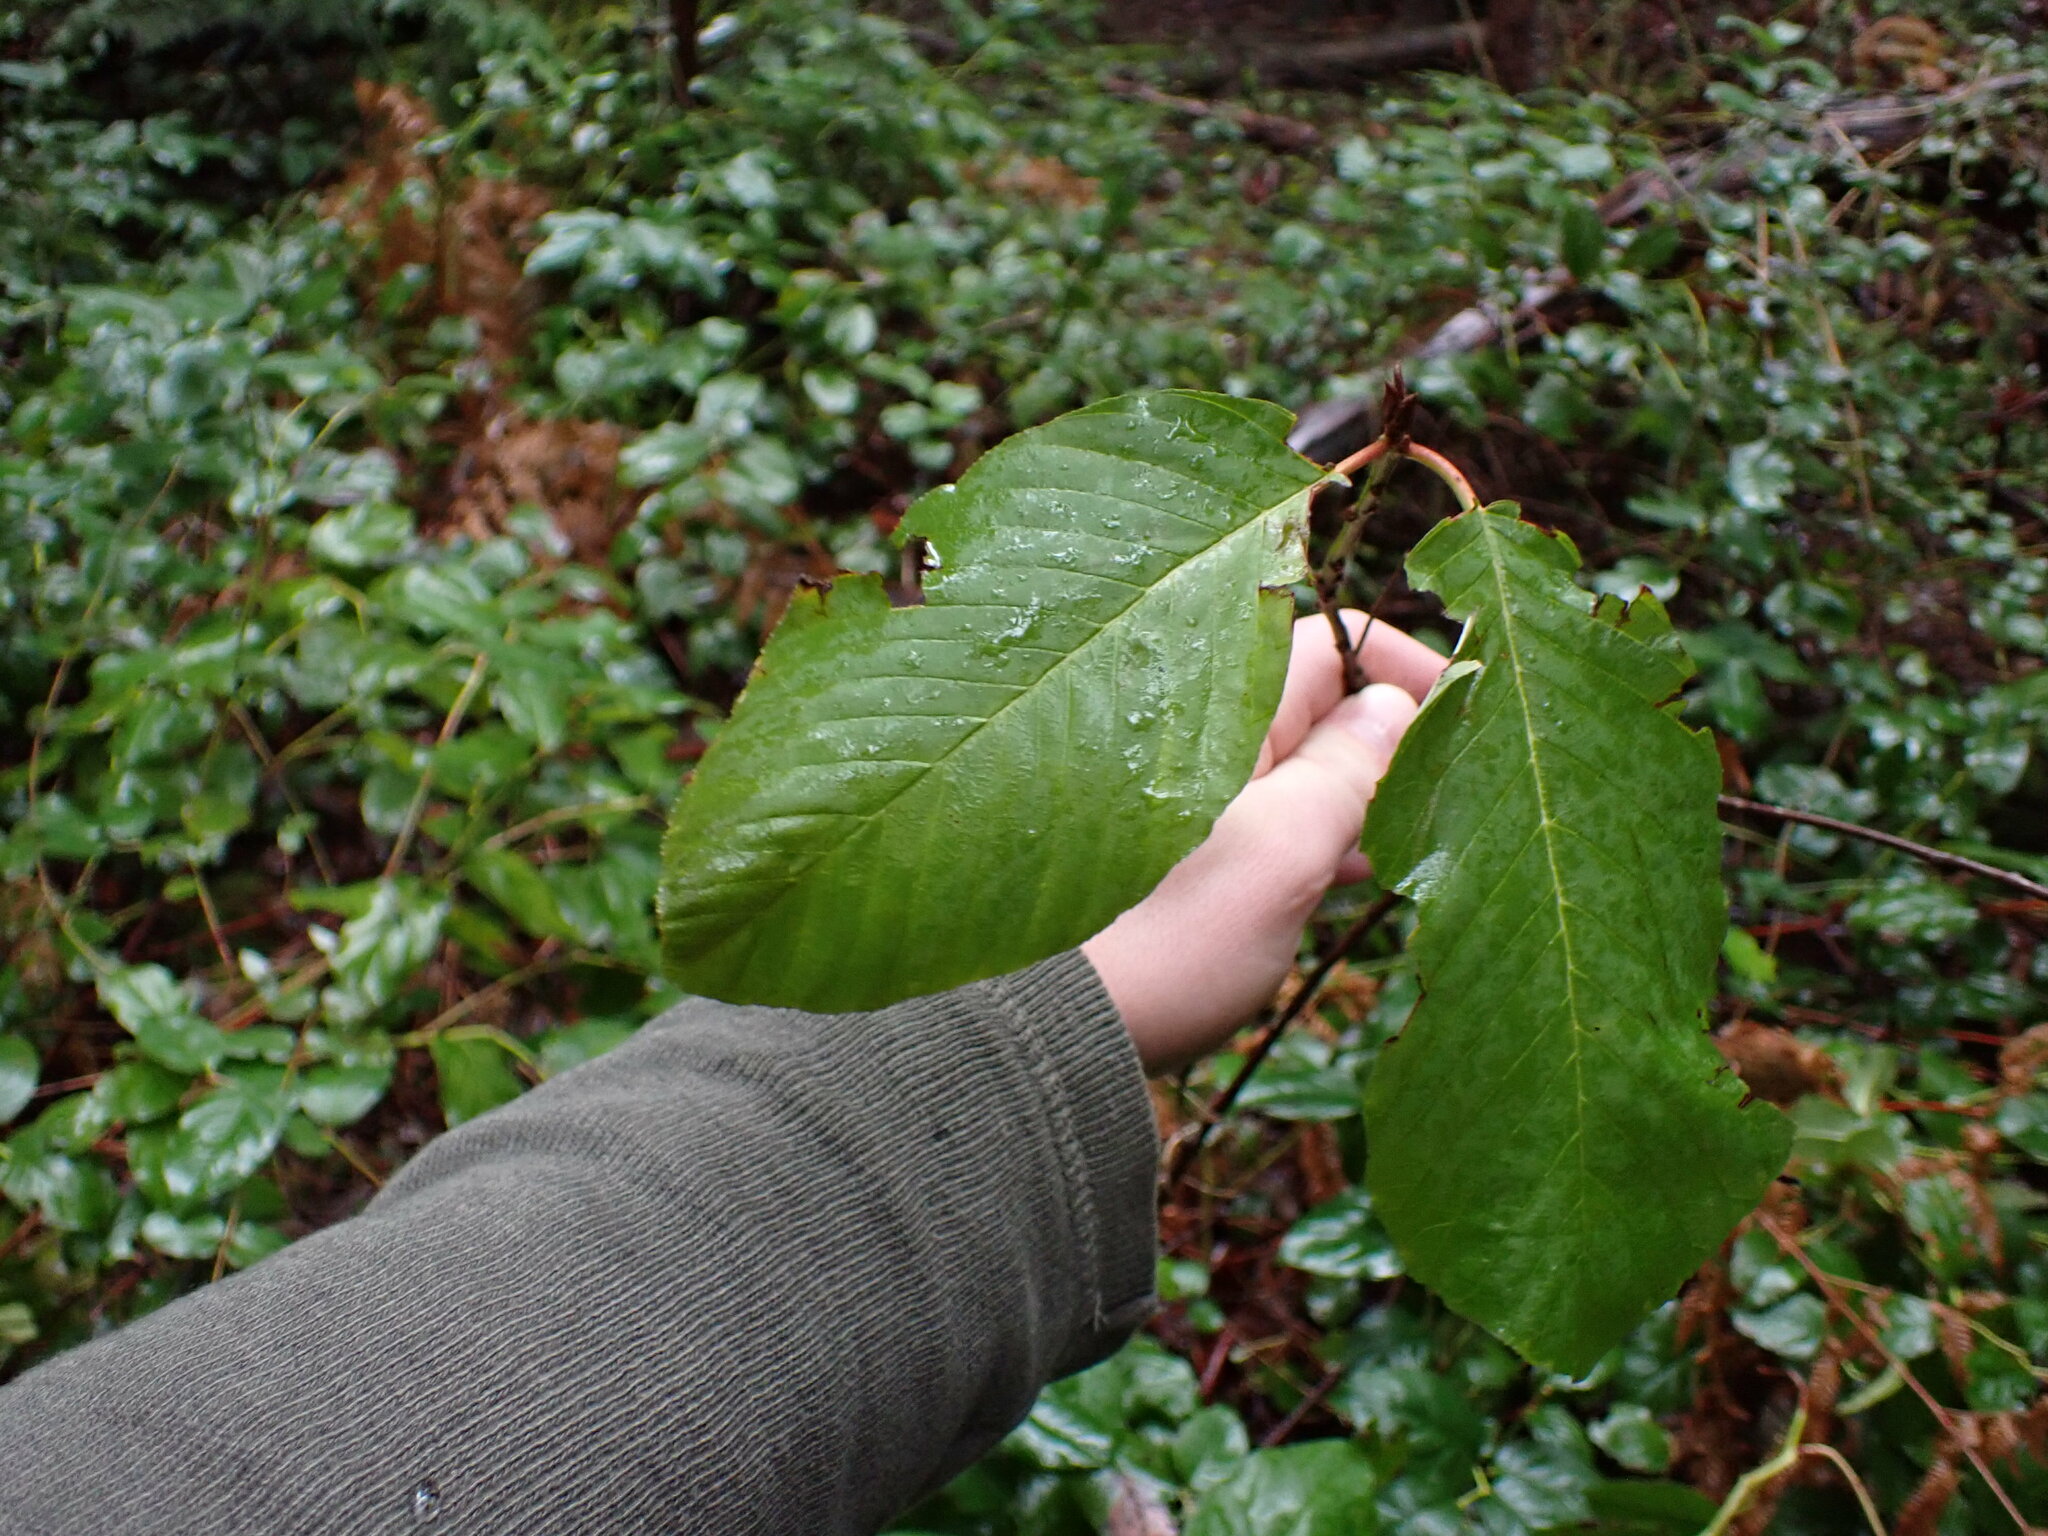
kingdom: Plantae
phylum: Tracheophyta
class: Magnoliopsida
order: Rosales
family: Rhamnaceae
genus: Frangula
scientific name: Frangula purshiana
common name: Cascara buckthorn
